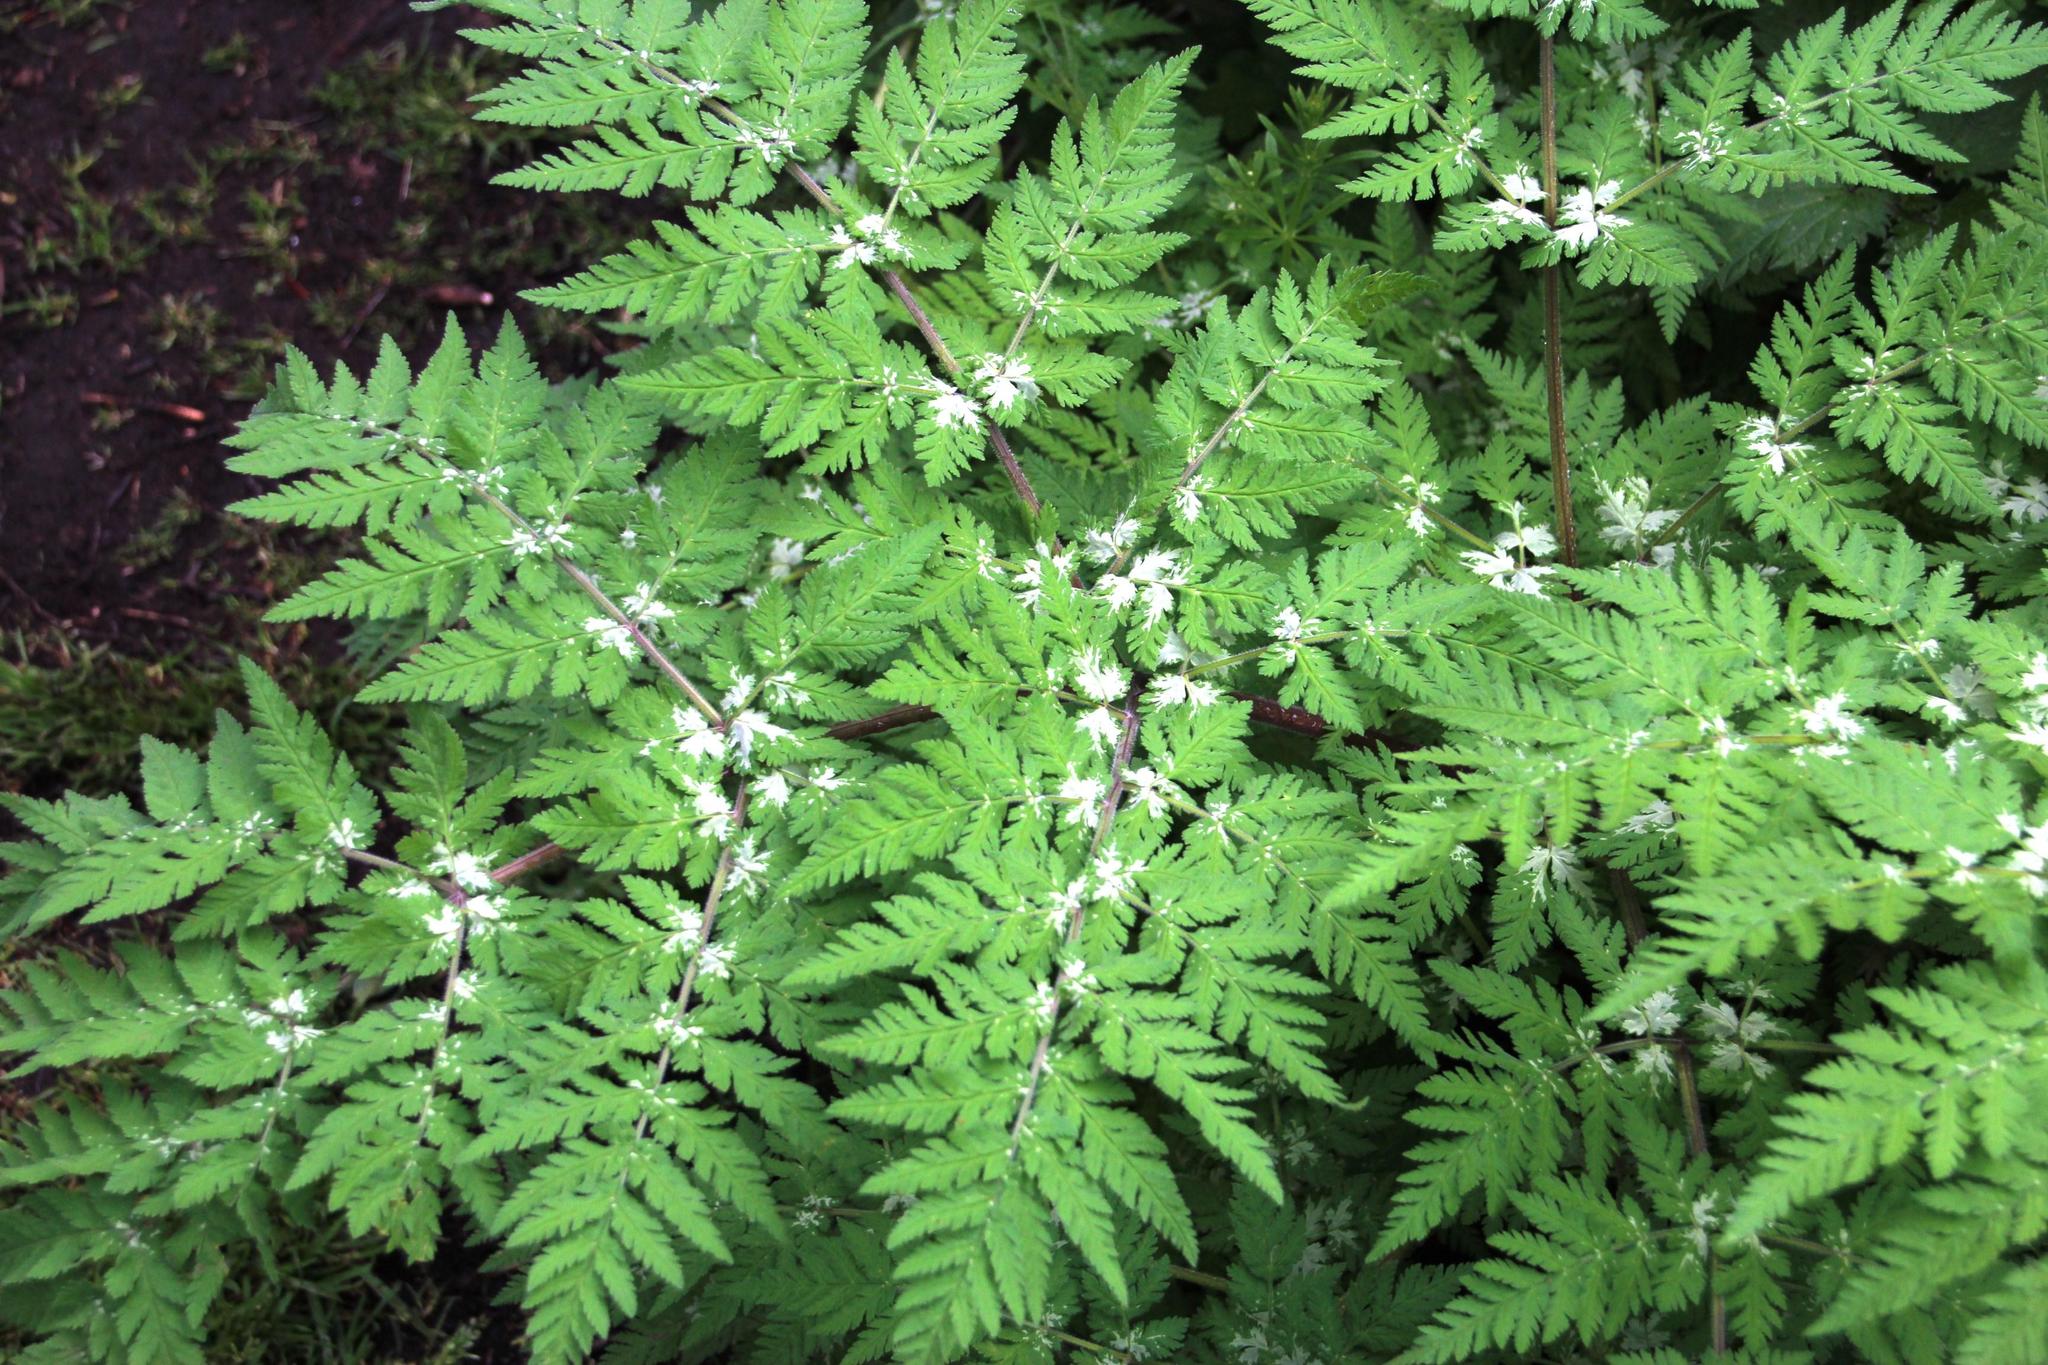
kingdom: Plantae
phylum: Tracheophyta
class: Magnoliopsida
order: Apiales
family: Apiaceae
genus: Myrrhis
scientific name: Myrrhis odorata
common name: Sweet cicely
